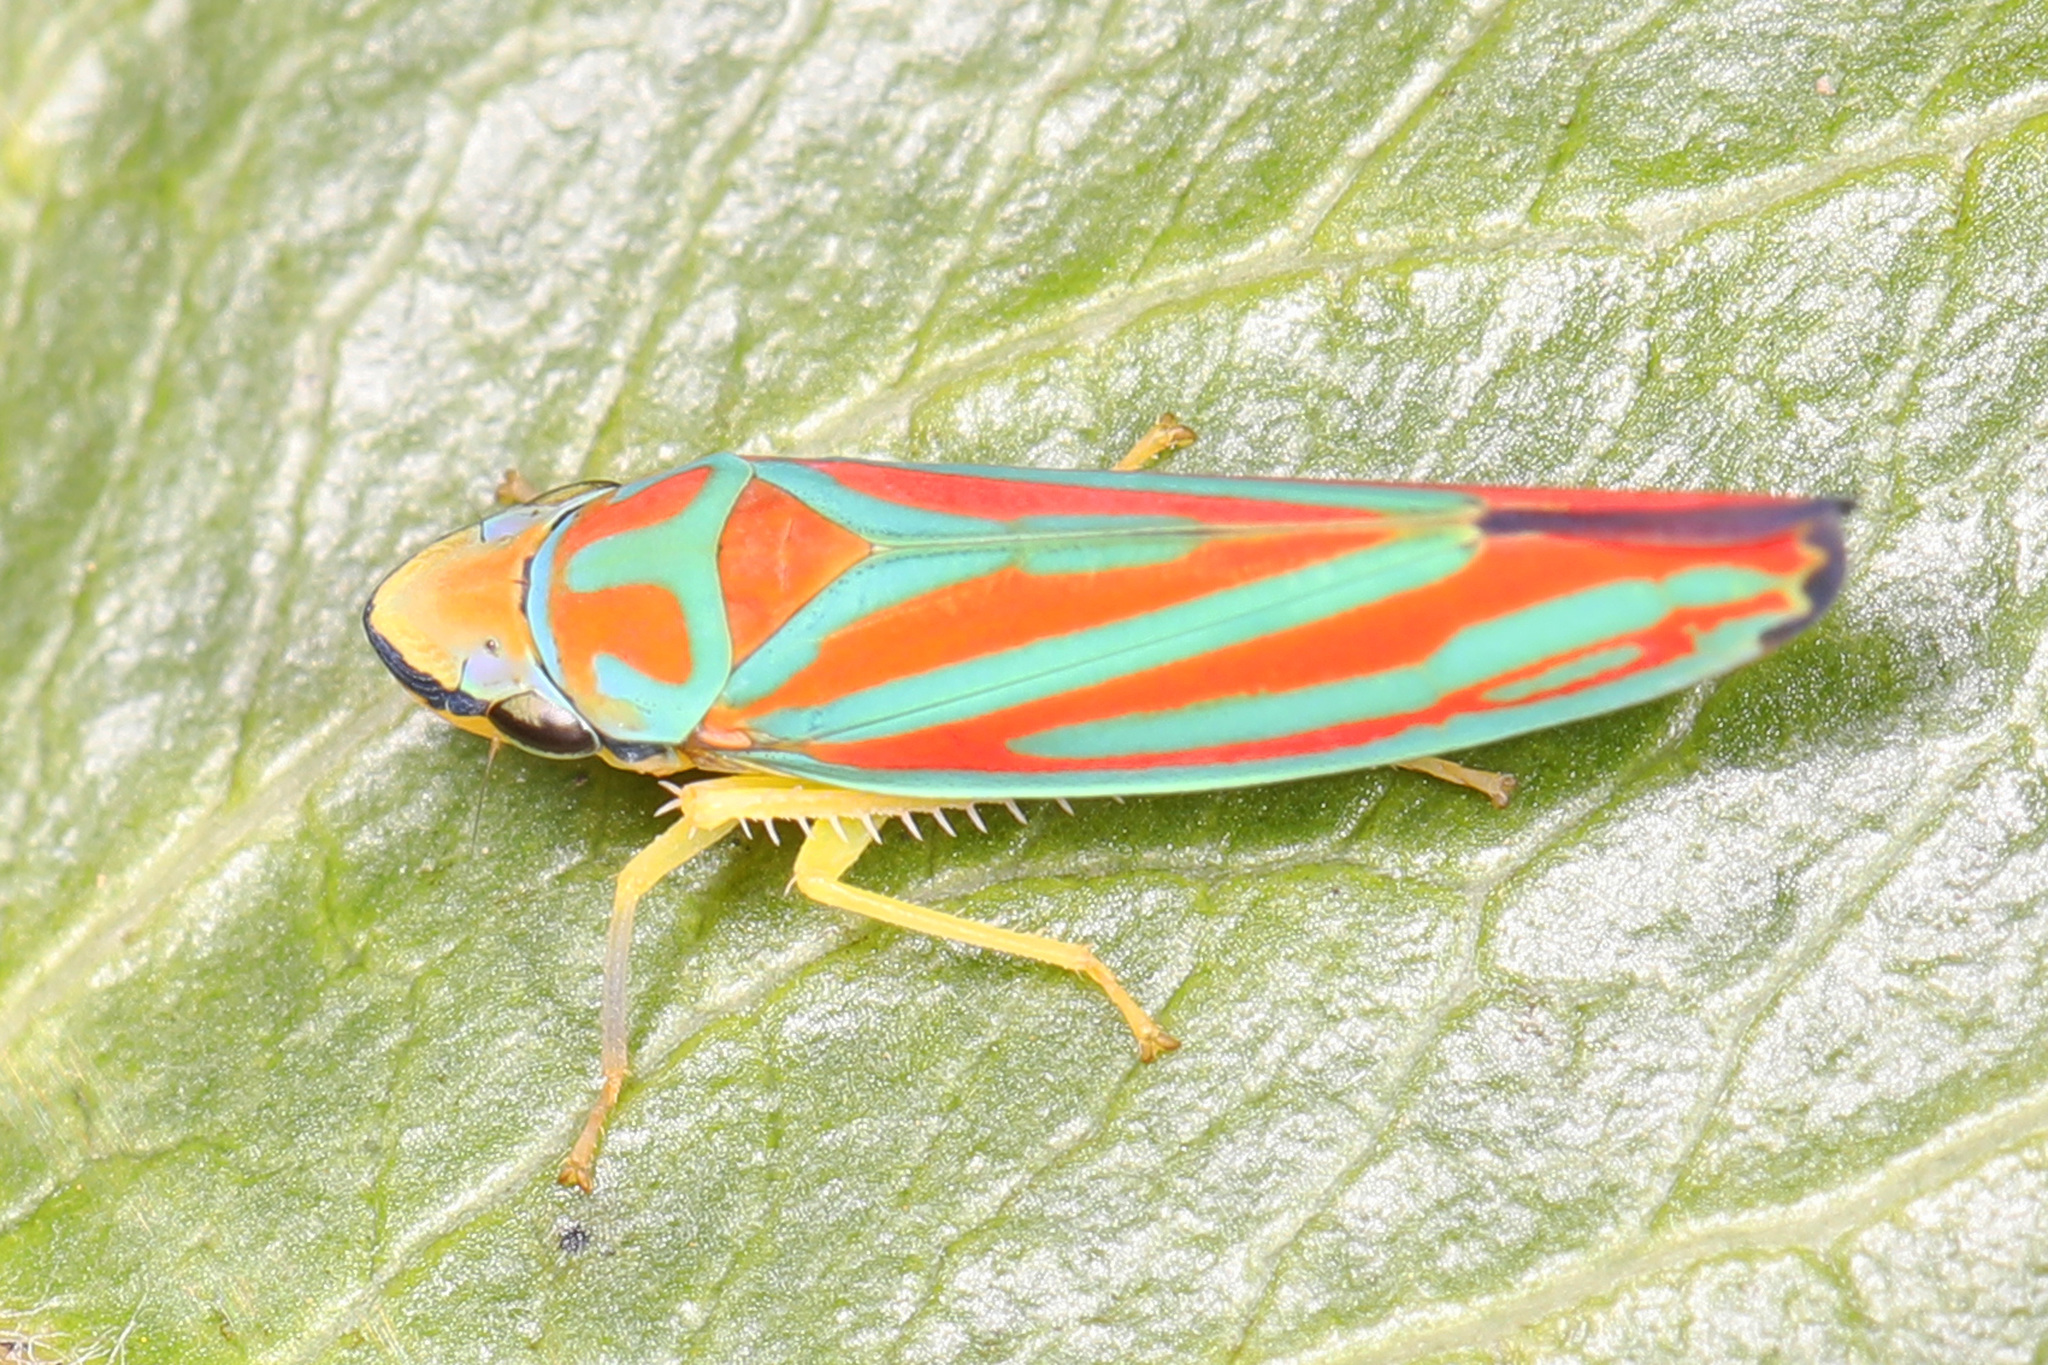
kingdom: Animalia
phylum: Arthropoda
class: Insecta
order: Hemiptera
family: Cicadellidae
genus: Graphocephala
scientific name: Graphocephala coccinea
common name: Candy-striped leafhopper
